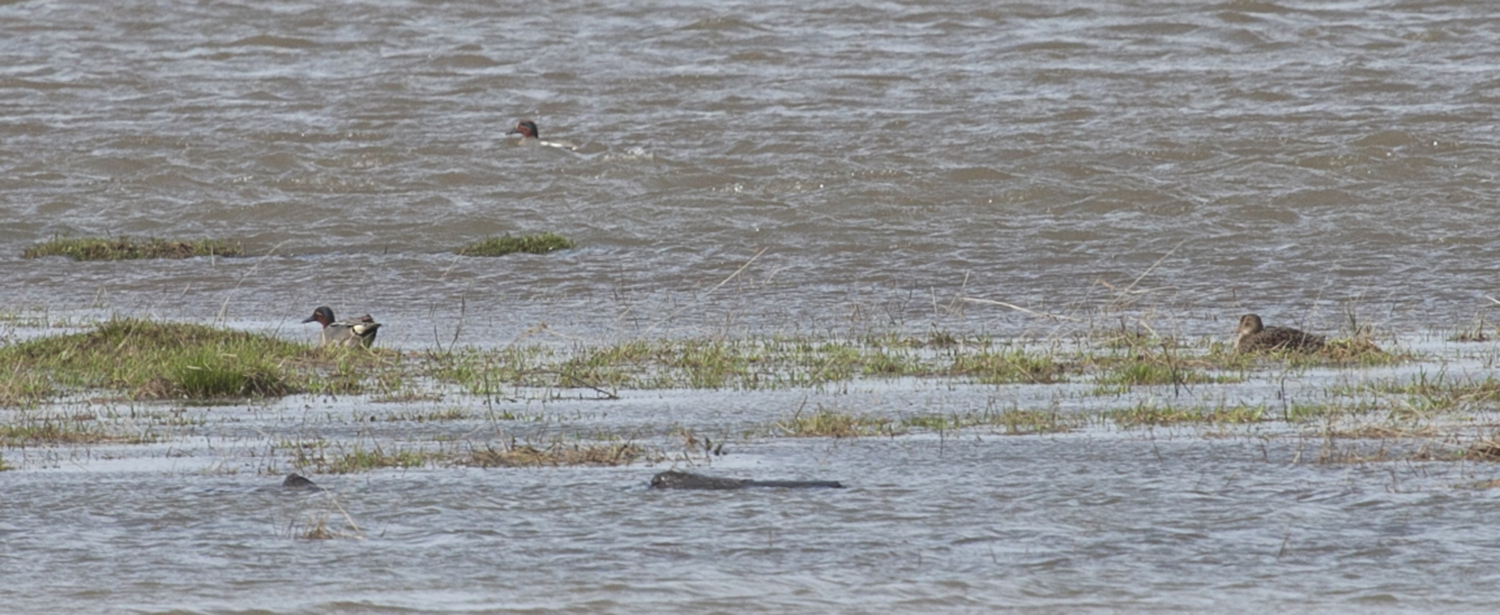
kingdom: Animalia
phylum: Chordata
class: Aves
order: Anseriformes
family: Anatidae
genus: Anas
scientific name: Anas crecca
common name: Eurasian teal
